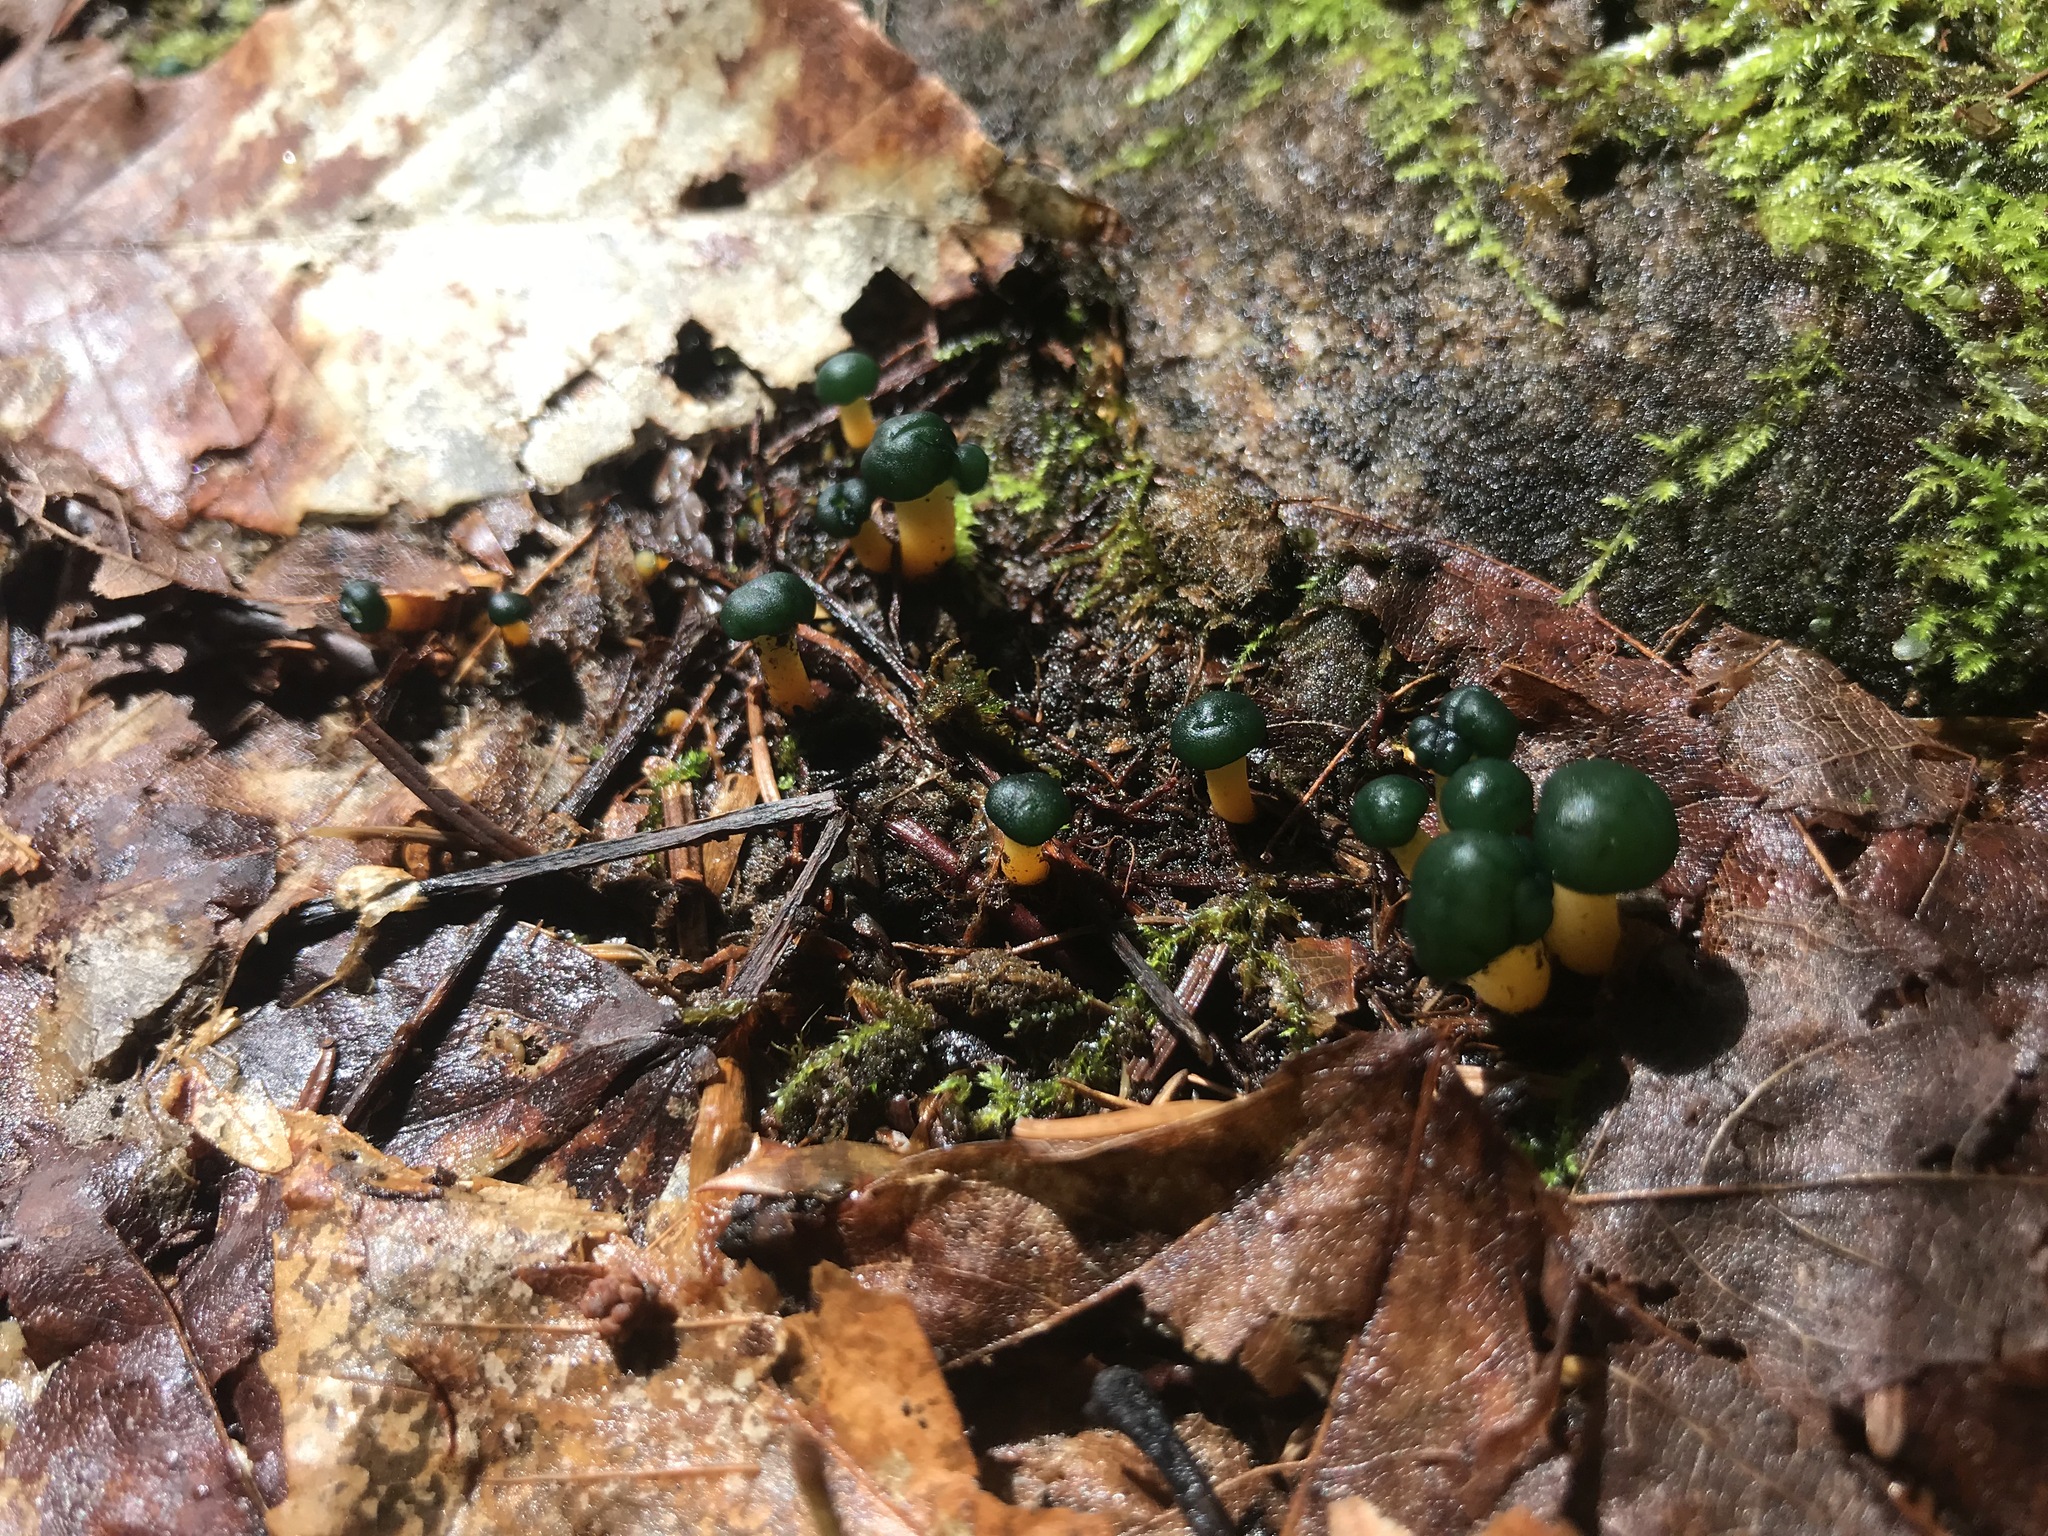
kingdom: Fungi
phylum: Ascomycota
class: Leotiomycetes
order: Leotiales
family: Leotiaceae
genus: Leotia
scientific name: Leotia lubrica
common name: Jellybaby
